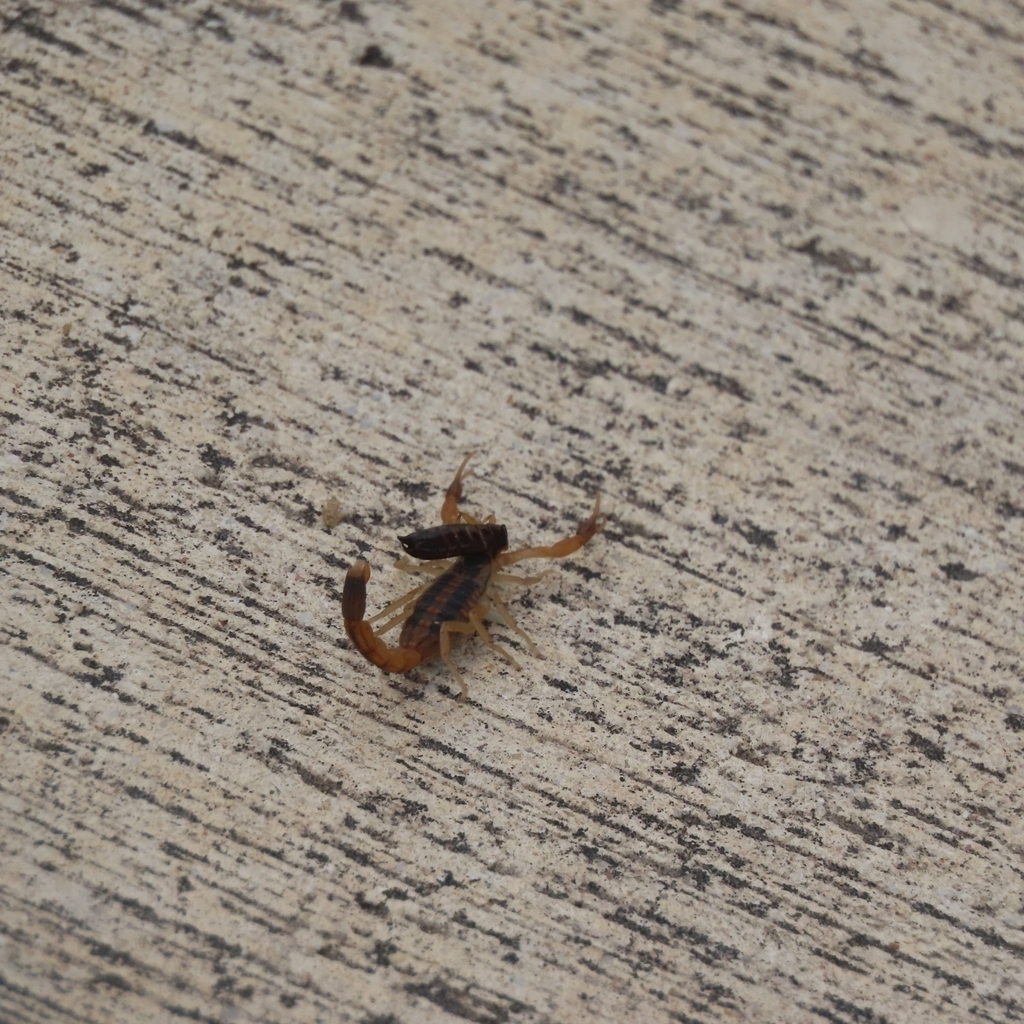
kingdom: Animalia
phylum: Arthropoda
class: Arachnida
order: Scorpiones
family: Buthidae
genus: Centruroides
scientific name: Centruroides vittatus
